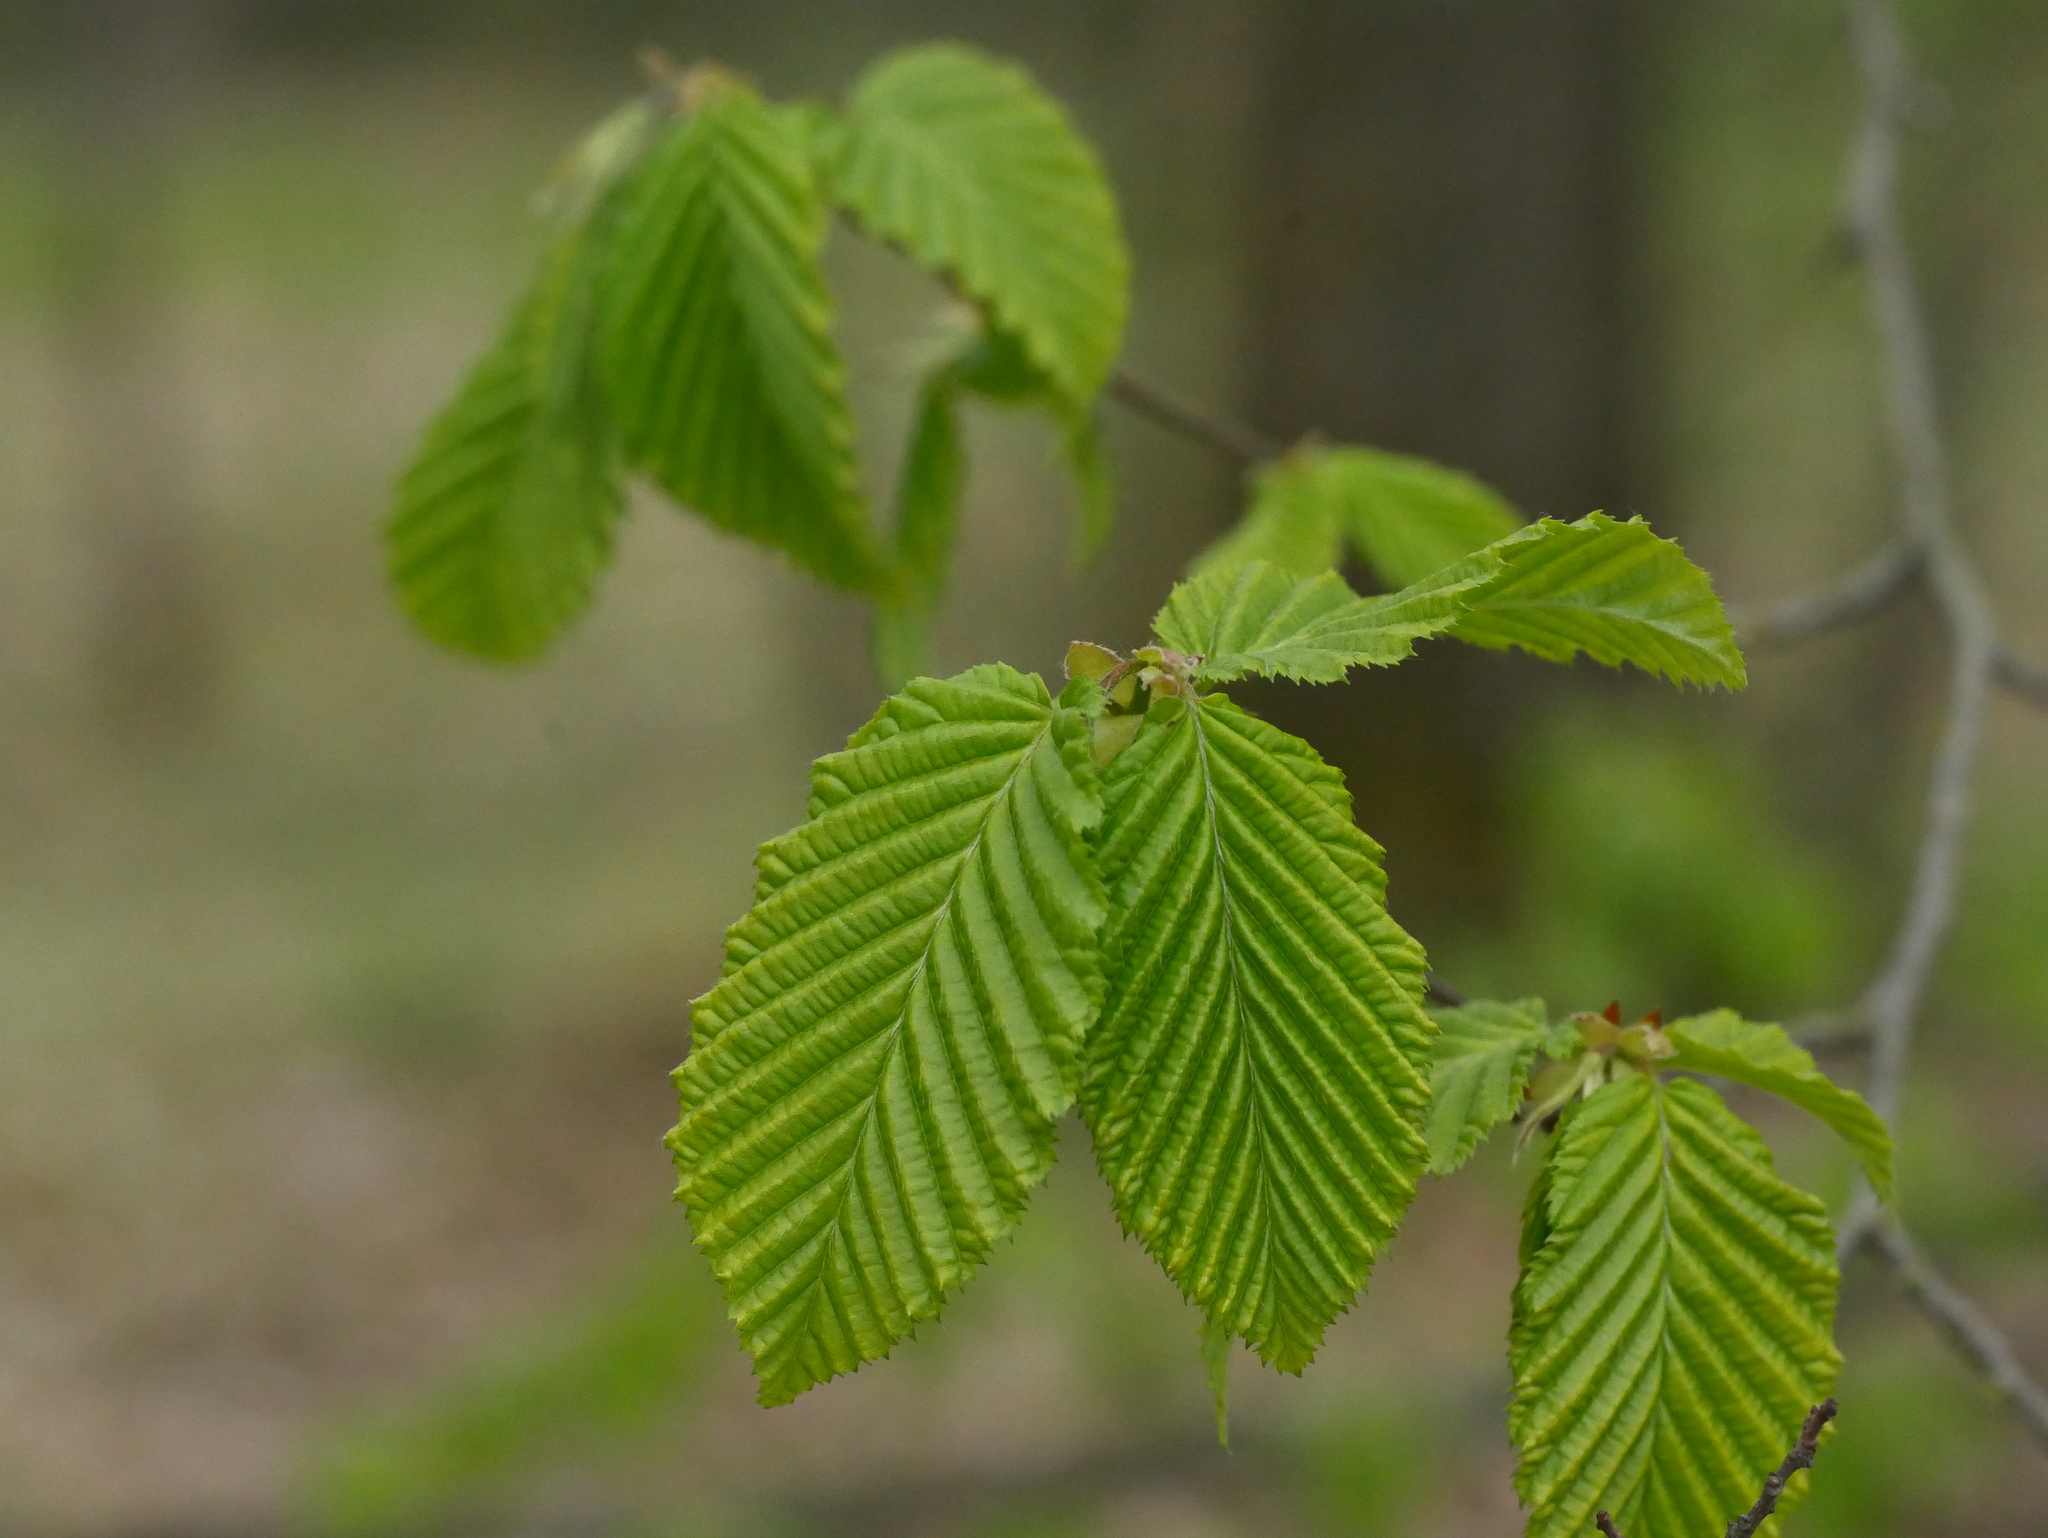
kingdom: Plantae
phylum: Tracheophyta
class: Magnoliopsida
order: Fagales
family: Betulaceae
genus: Carpinus
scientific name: Carpinus betulus
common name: Hornbeam
